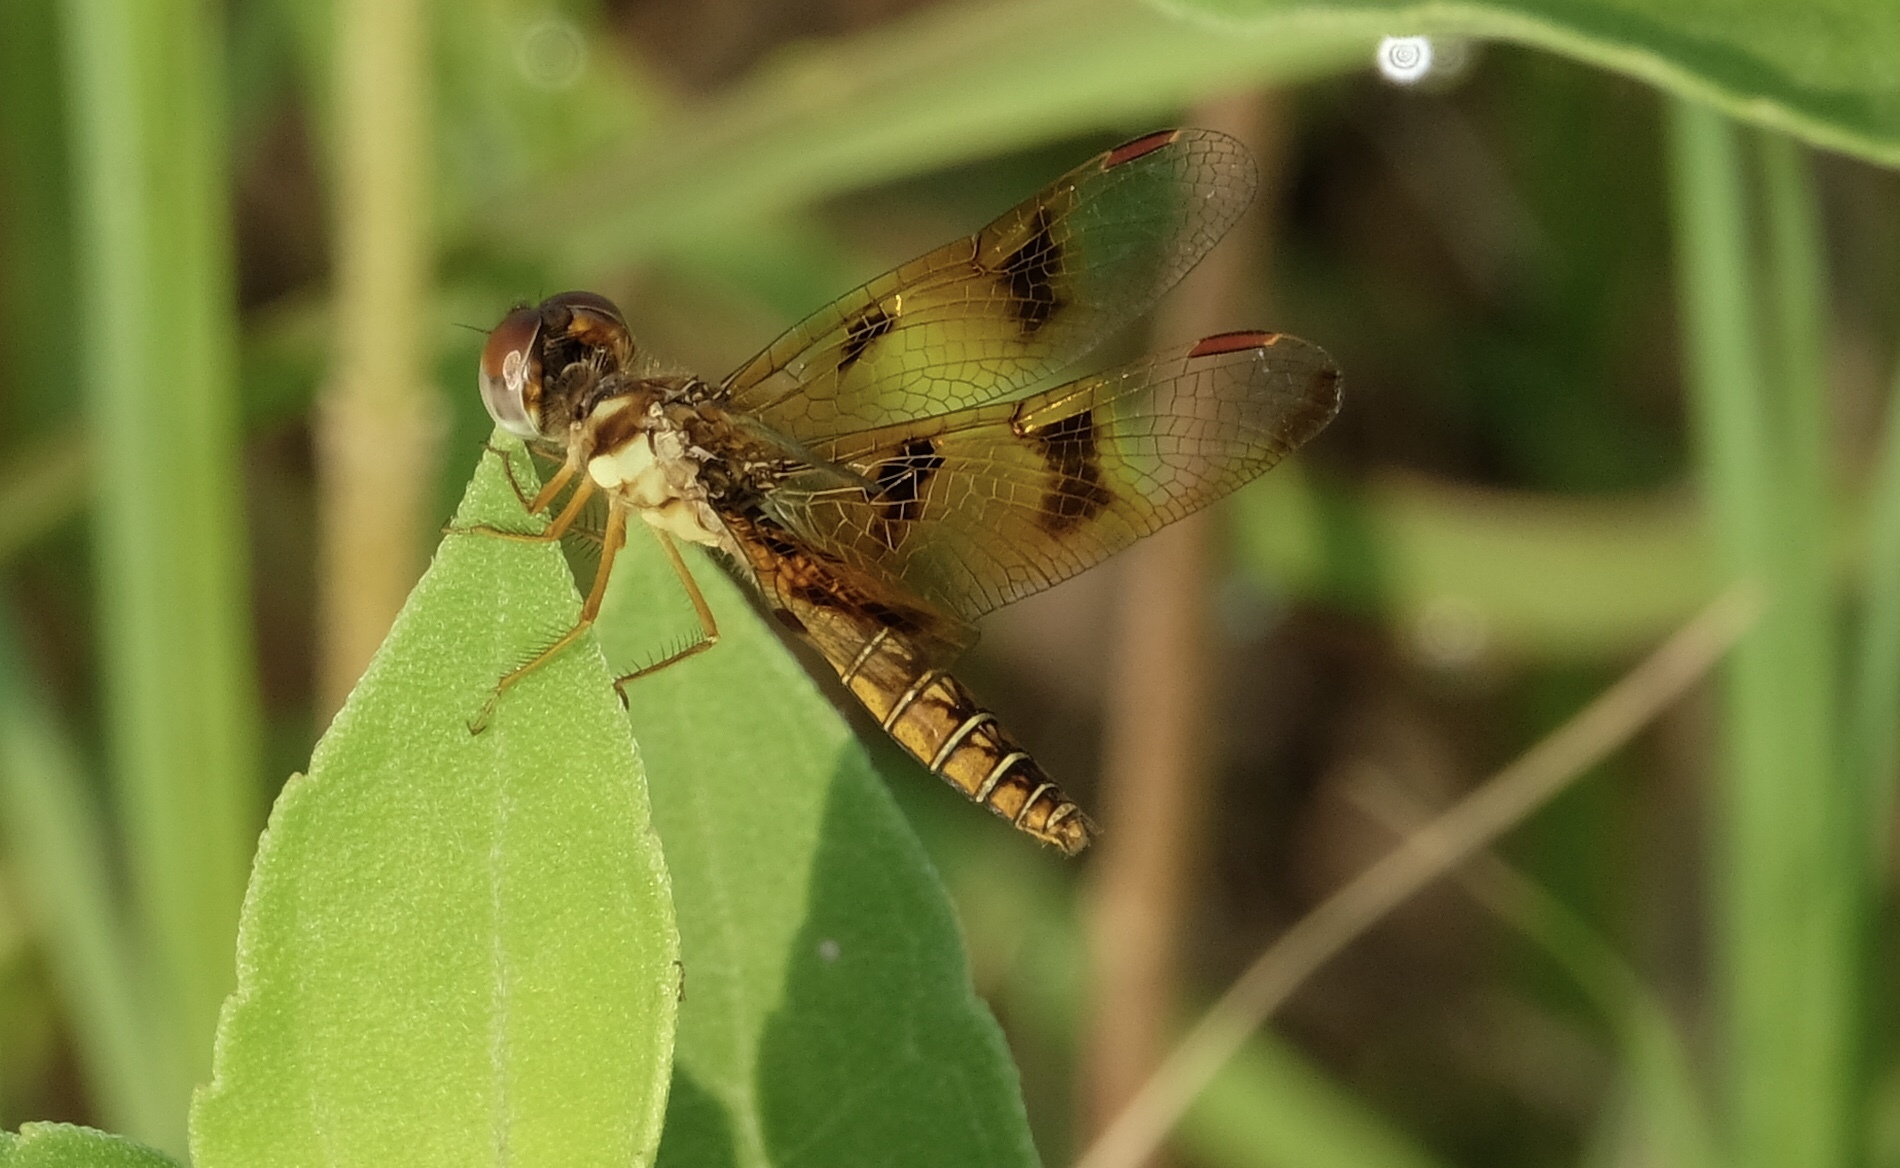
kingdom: Animalia
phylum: Arthropoda
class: Insecta
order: Odonata
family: Libellulidae
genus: Perithemis
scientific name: Perithemis tenera
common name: Eastern amberwing
